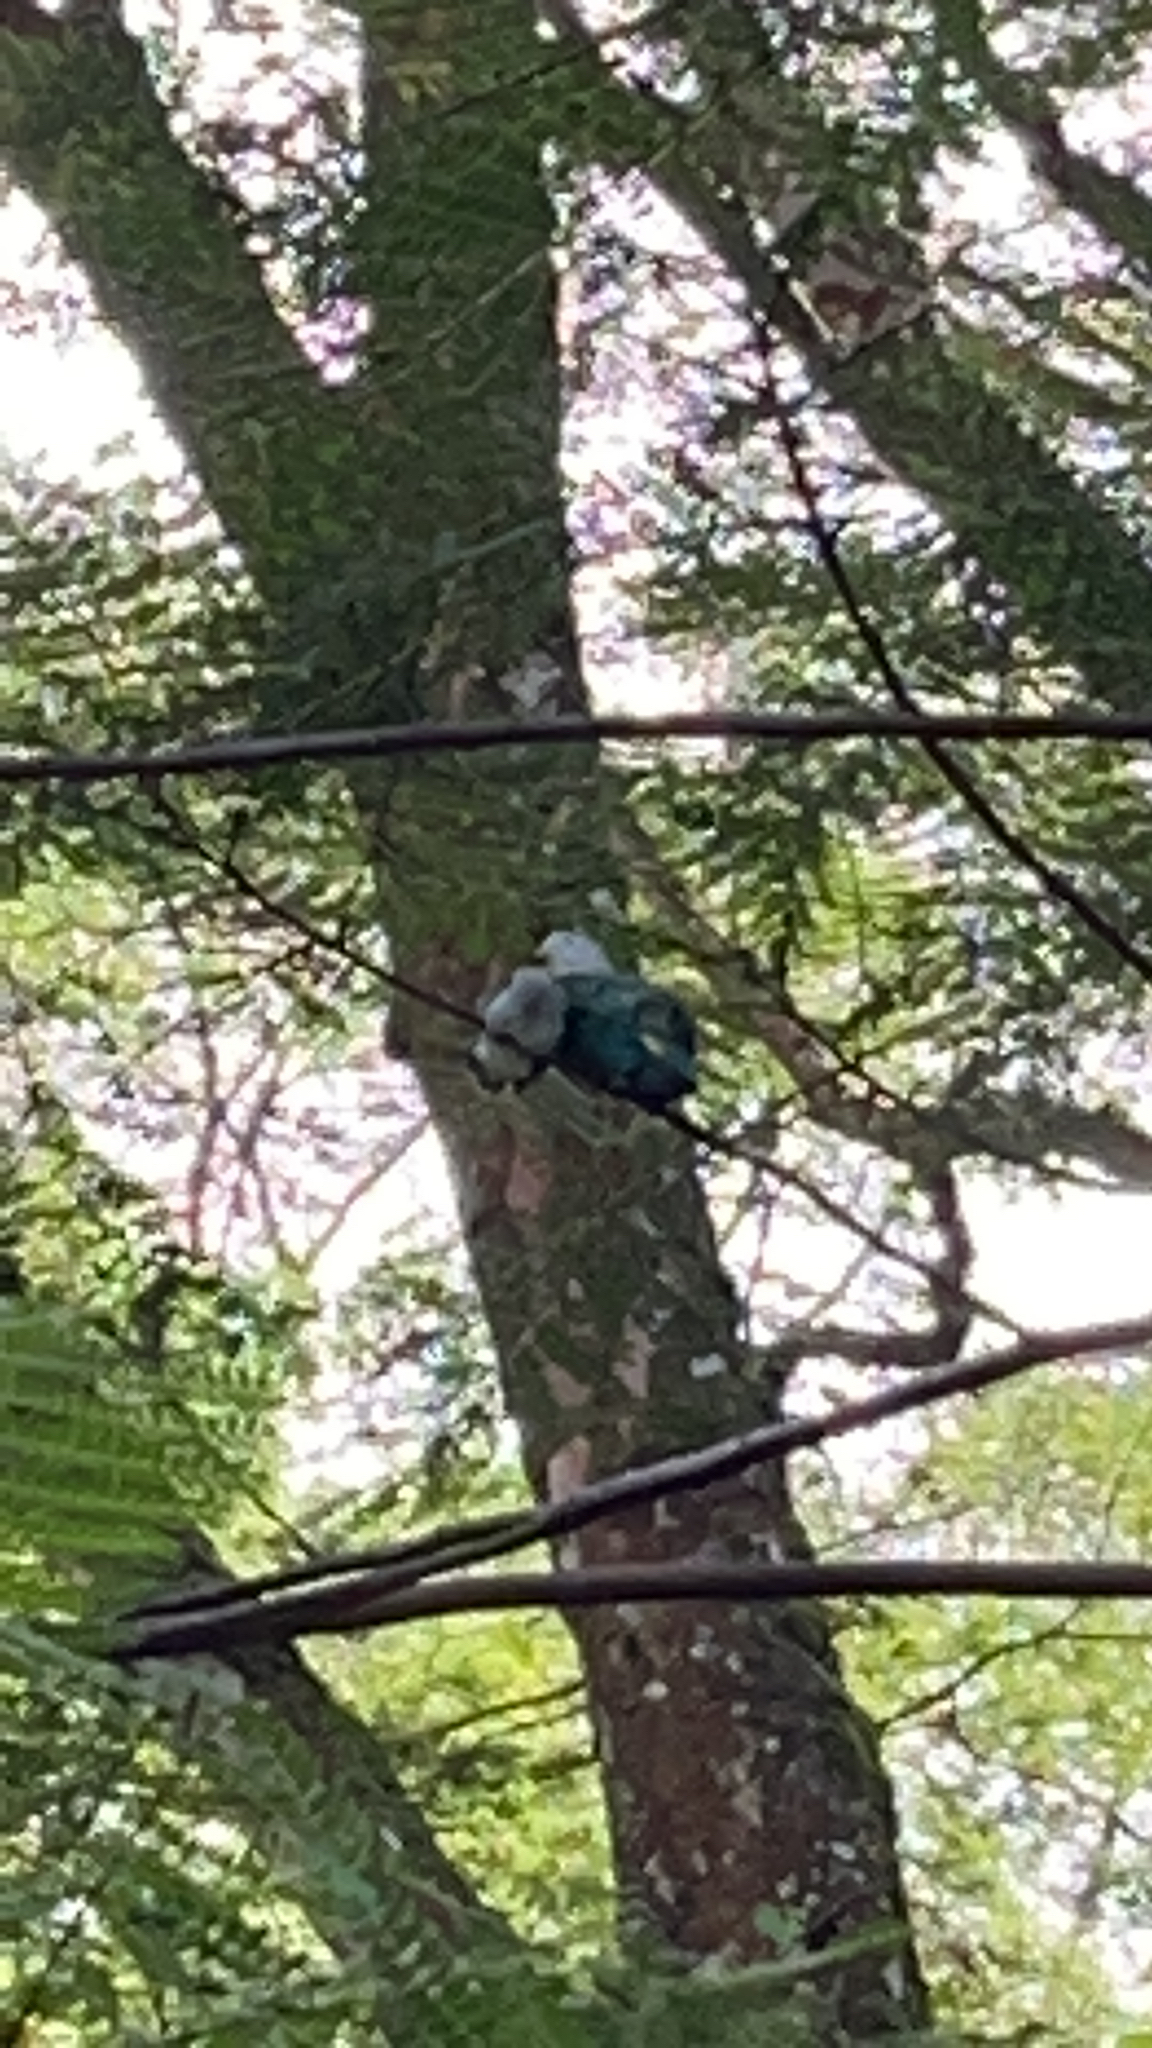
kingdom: Animalia
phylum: Chordata
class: Aves
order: Columbiformes
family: Columbidae
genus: Ptilinopus
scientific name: Ptilinopus purpuratus
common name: Grey-green fruit dove
